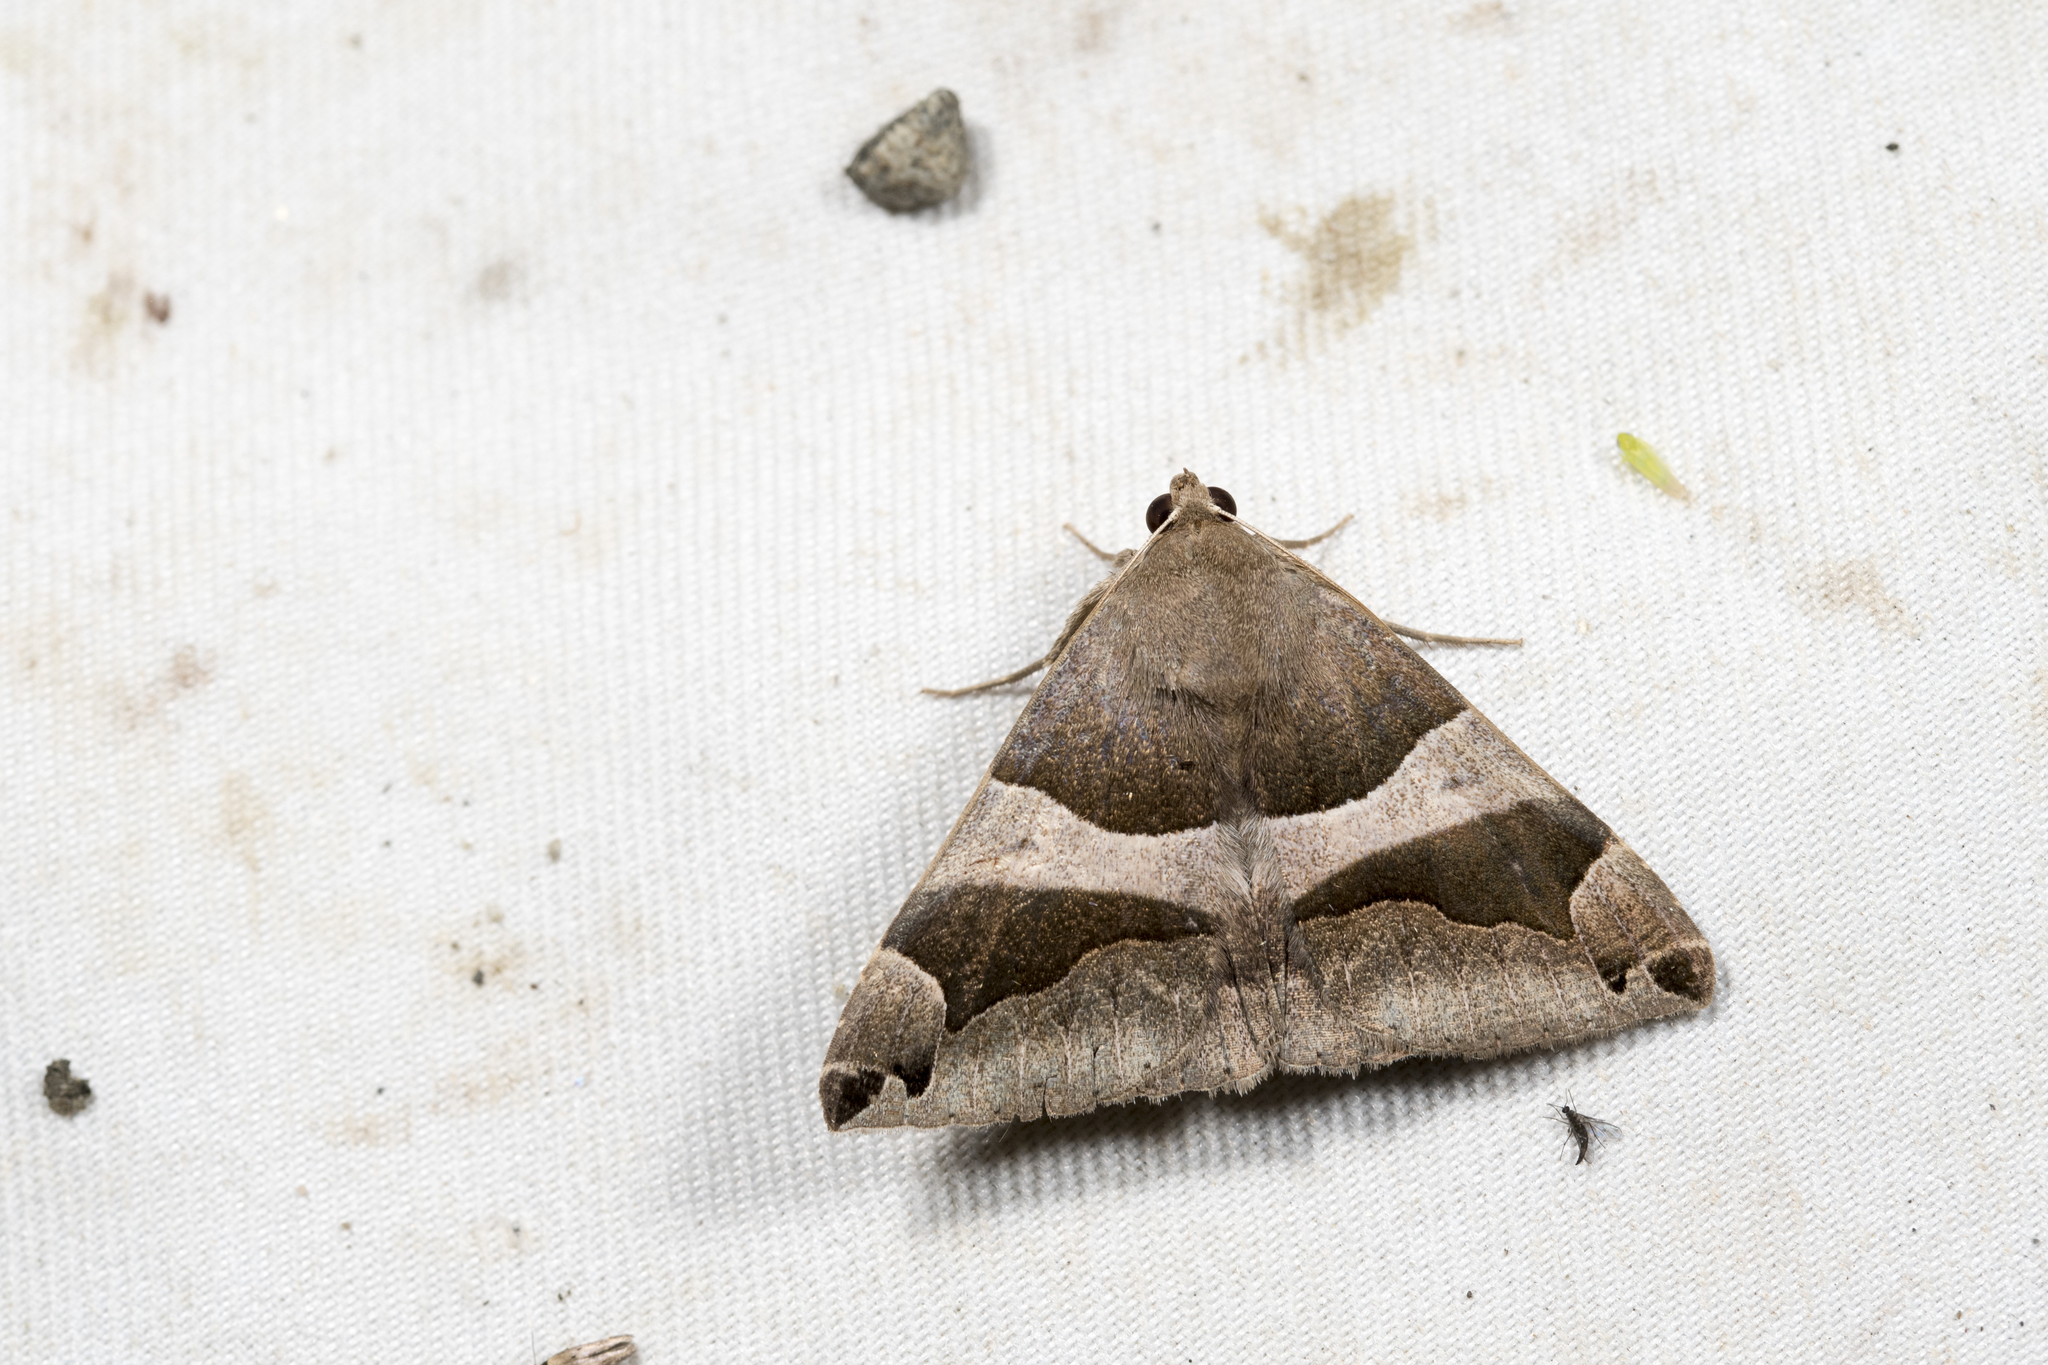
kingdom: Animalia
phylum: Arthropoda
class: Insecta
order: Lepidoptera
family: Erebidae
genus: Dysgonia
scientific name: Dysgonia stuposa
